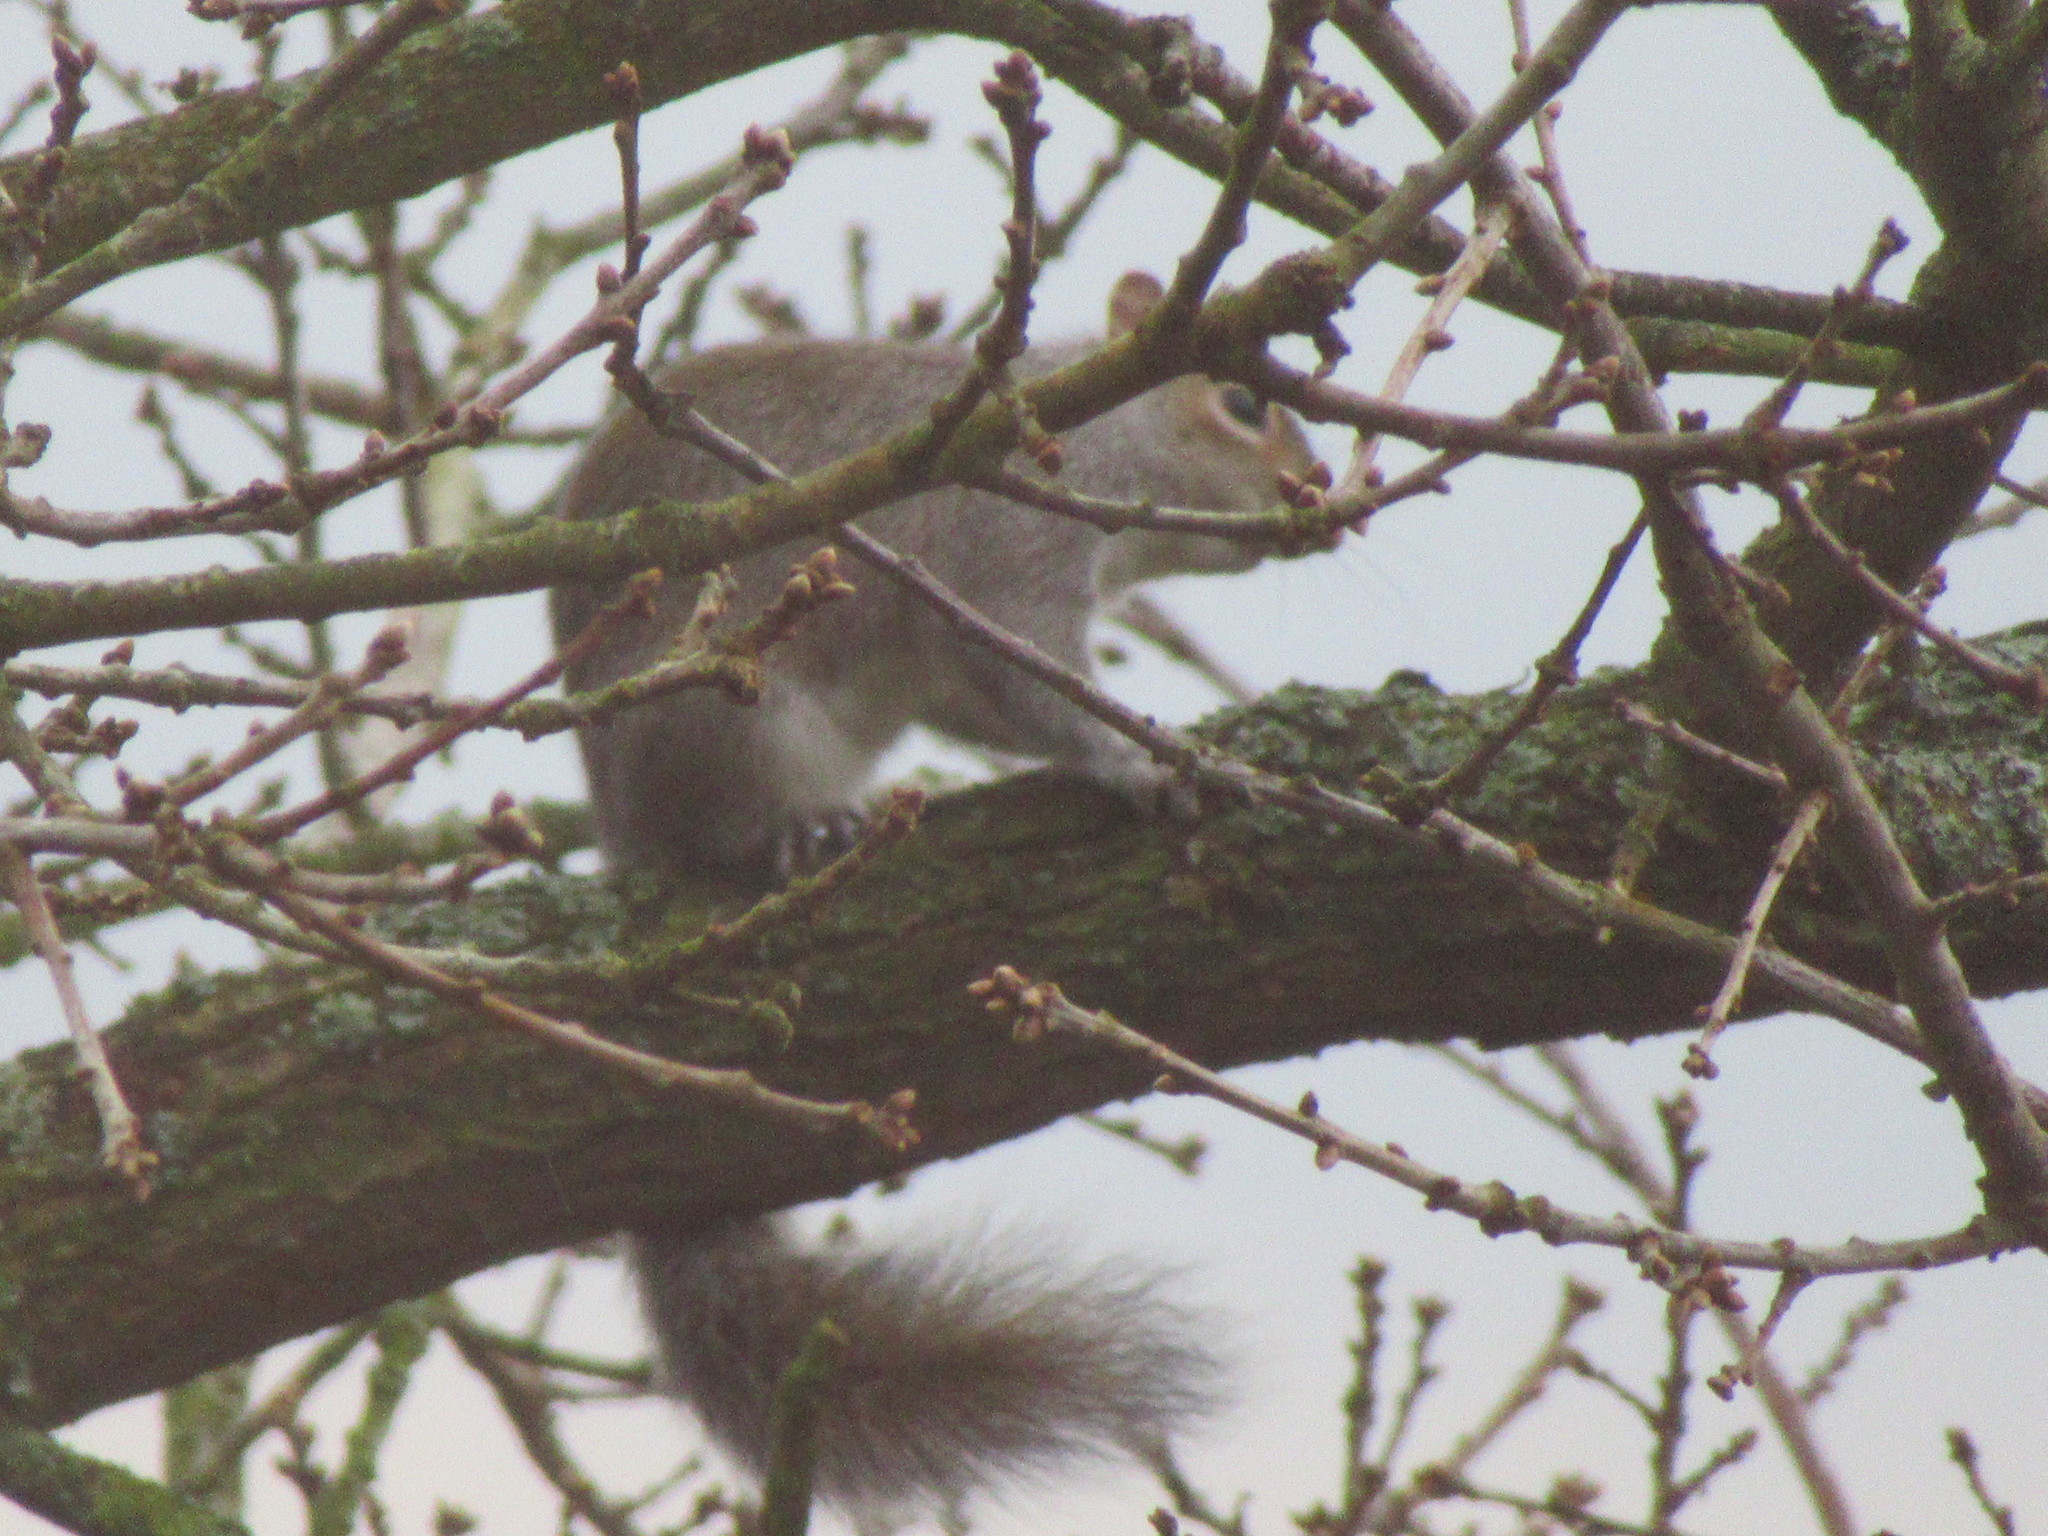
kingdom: Animalia
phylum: Chordata
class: Mammalia
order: Rodentia
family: Sciuridae
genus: Sciurus
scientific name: Sciurus carolinensis
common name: Eastern gray squirrel
